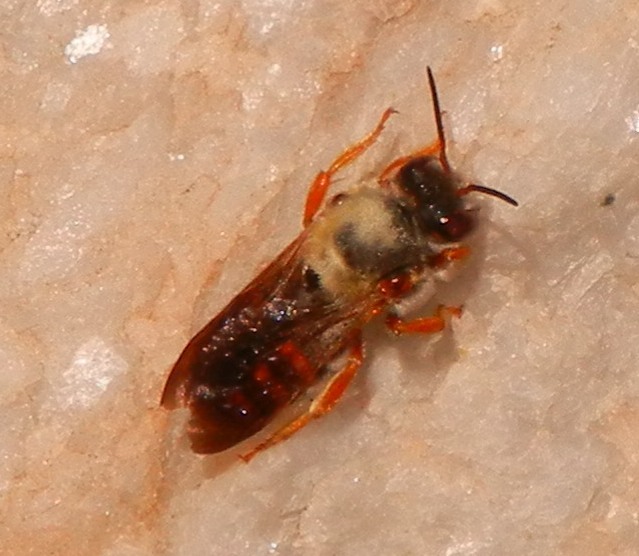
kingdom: Animalia
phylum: Arthropoda
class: Insecta
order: Hymenoptera
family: Megachilidae
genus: Rhodanthidium
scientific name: Rhodanthidium sticticum
